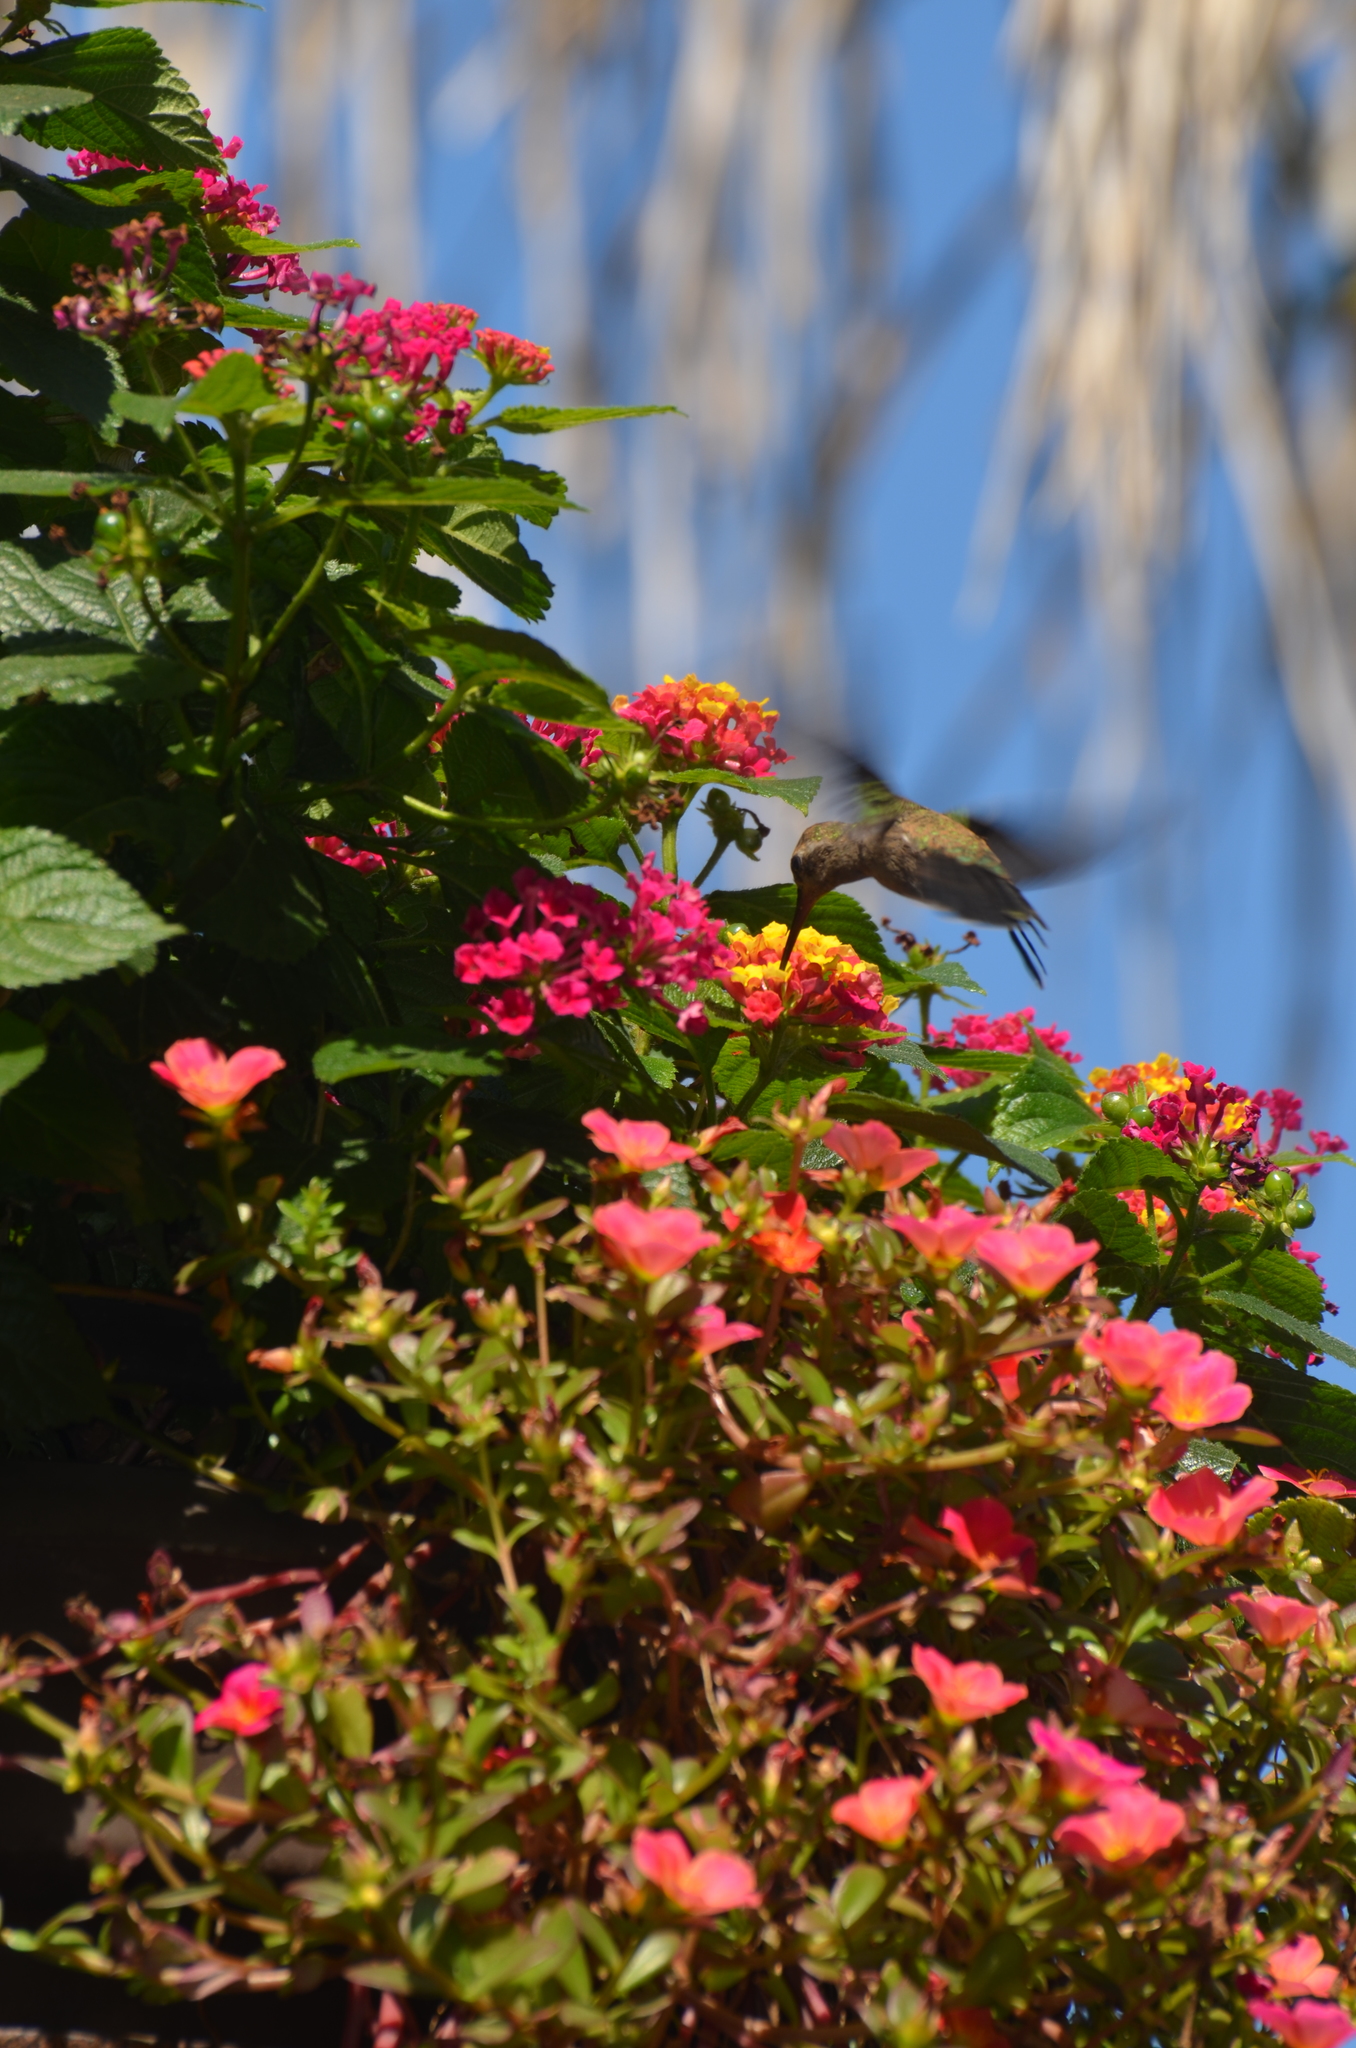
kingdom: Animalia
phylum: Chordata
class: Aves
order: Apodiformes
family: Trochilidae
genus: Cynanthus
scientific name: Cynanthus latirostris
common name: Broad-billed hummingbird
